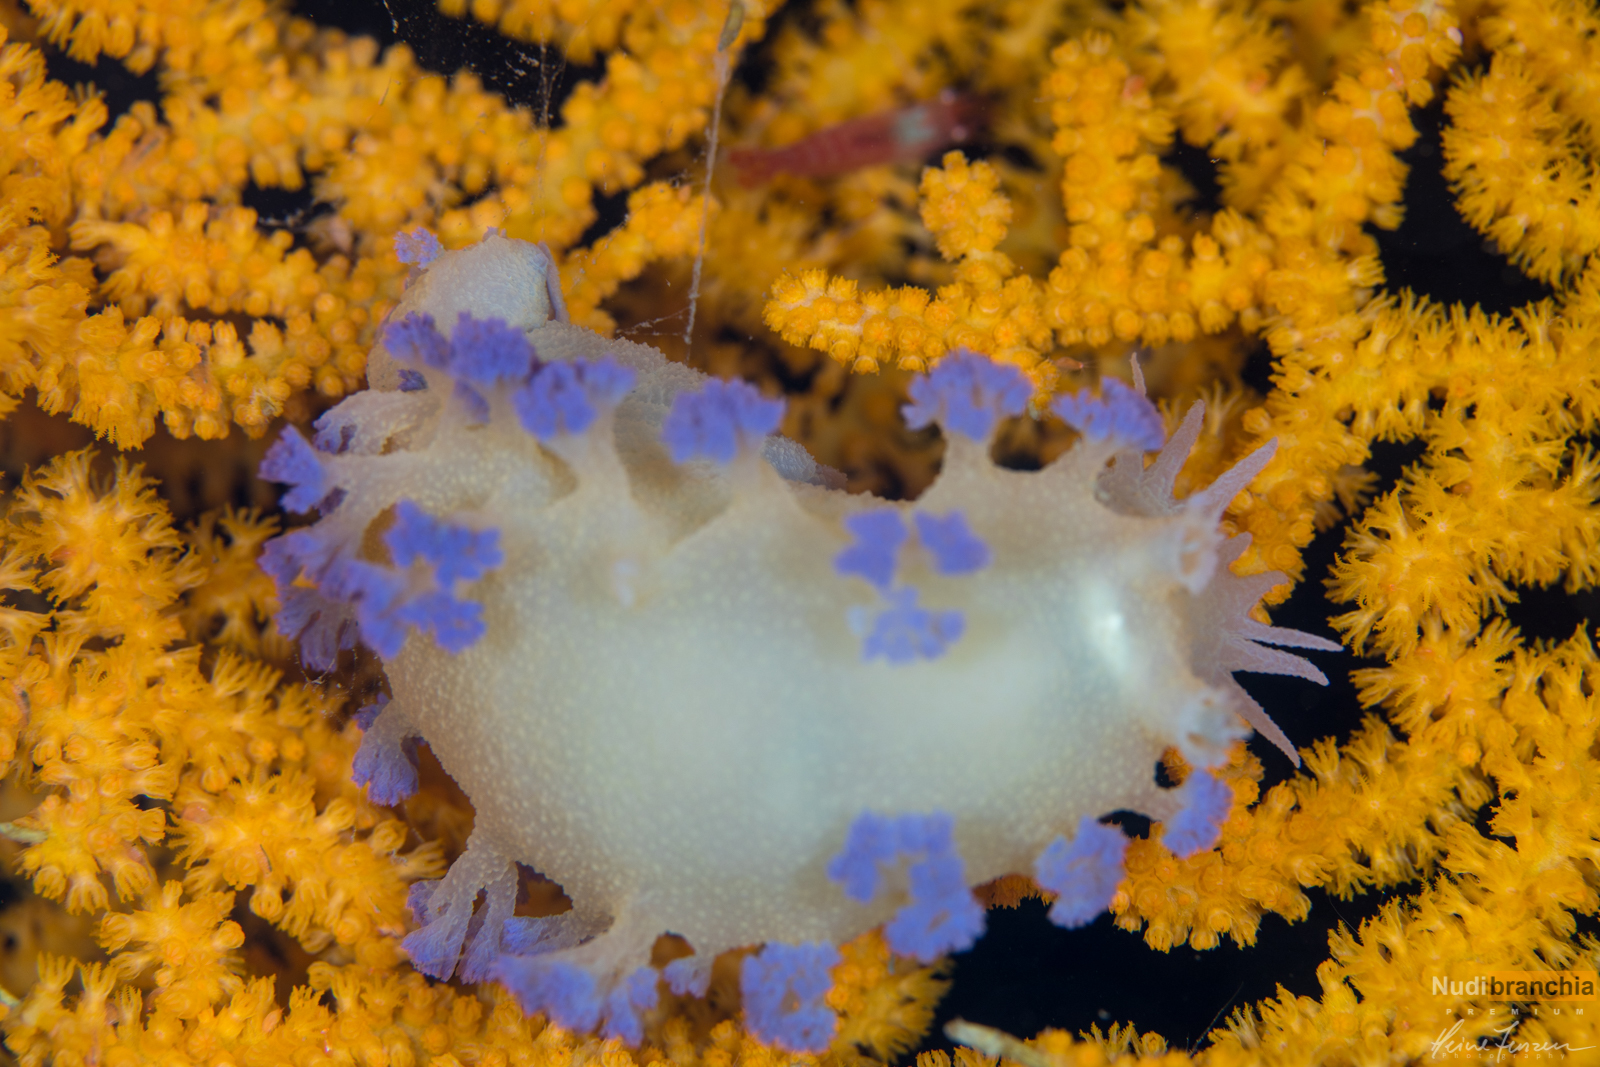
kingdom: Animalia
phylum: Mollusca
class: Gastropoda
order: Nudibranchia
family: Tritoniidae
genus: Tritonia
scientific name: Tritonia griegi
